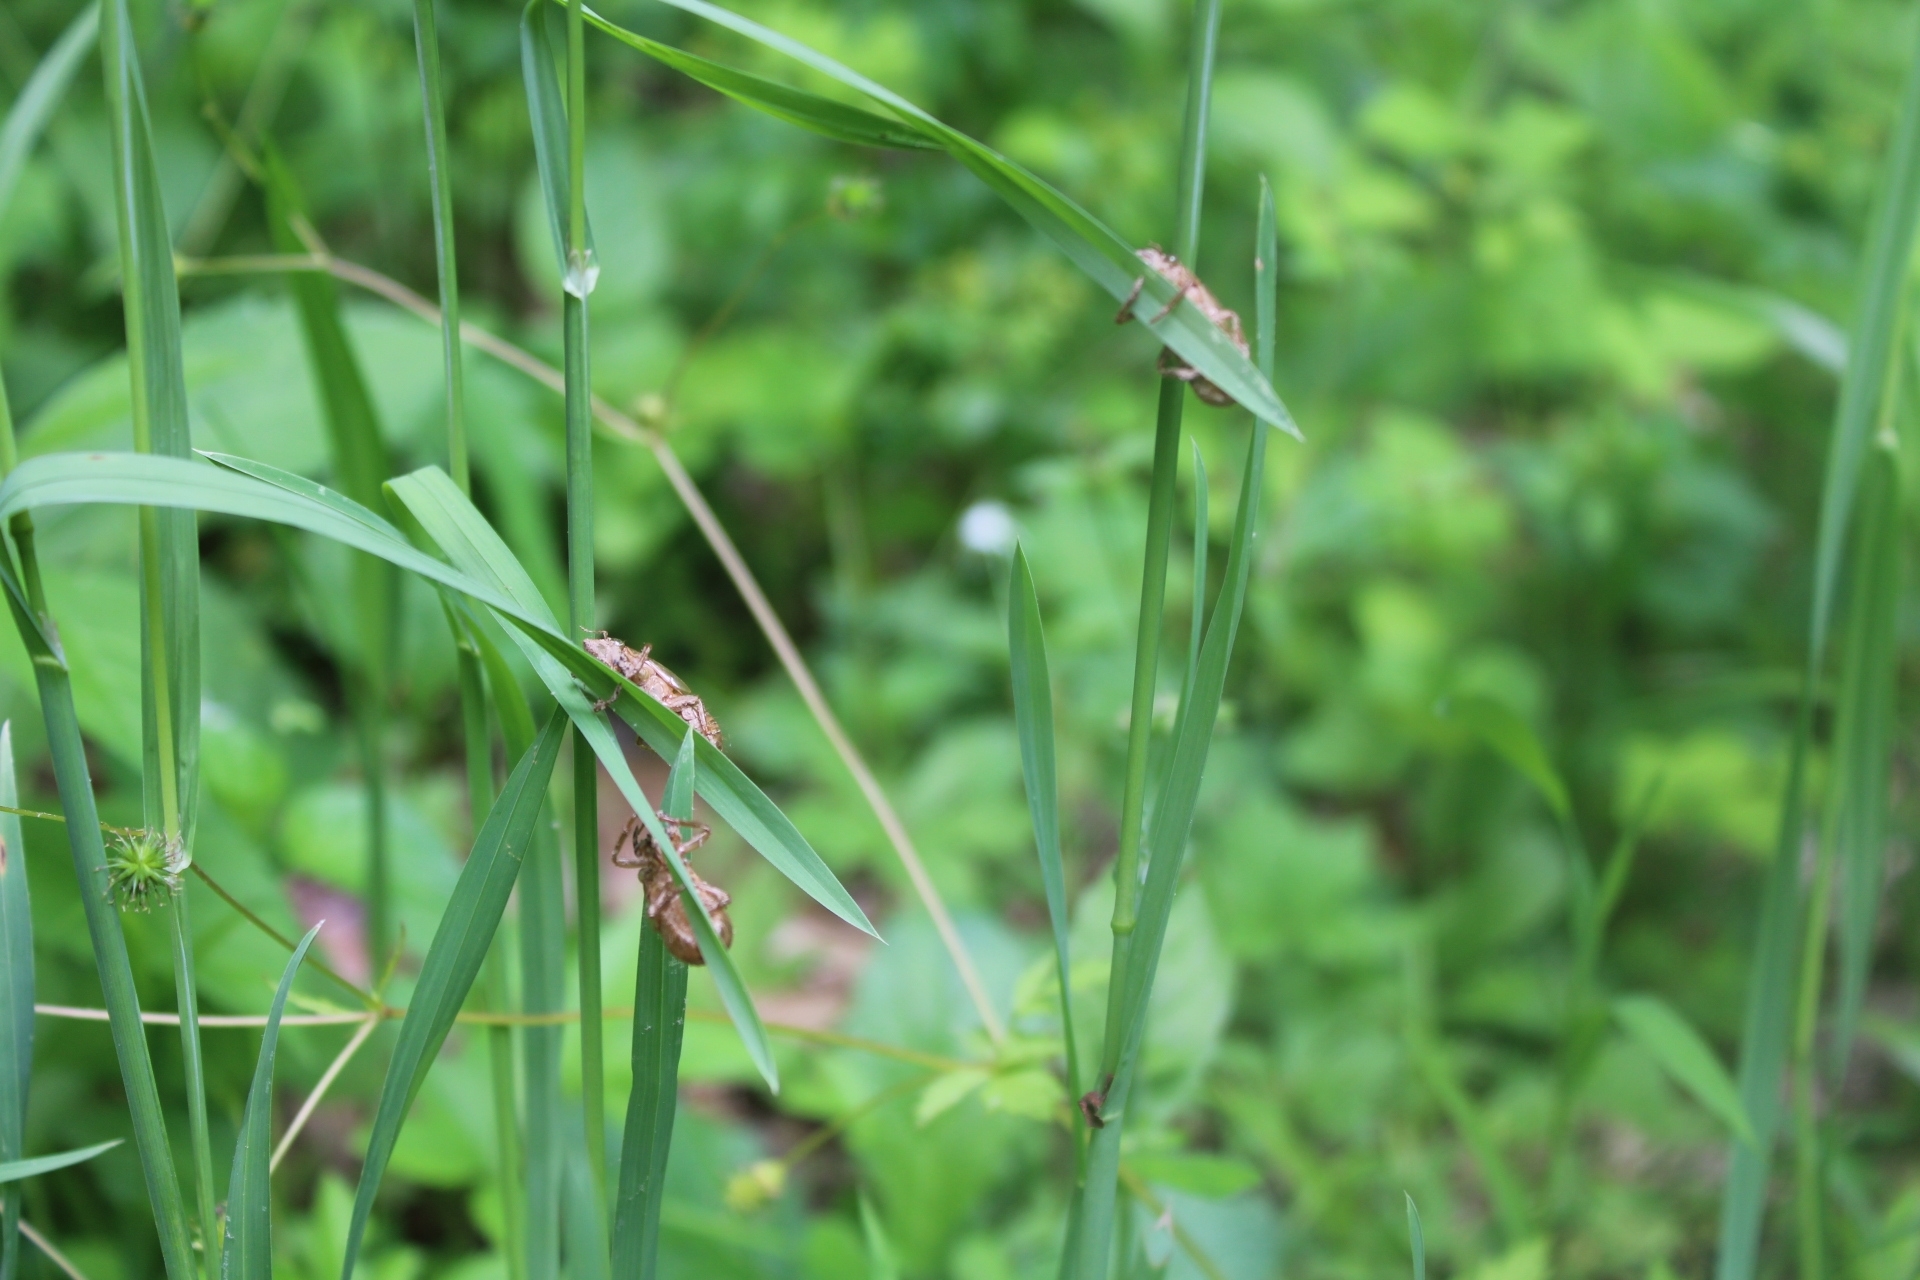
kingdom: Animalia
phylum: Arthropoda
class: Insecta
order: Hemiptera
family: Cicadidae
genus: Magicicada
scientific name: Magicicada
